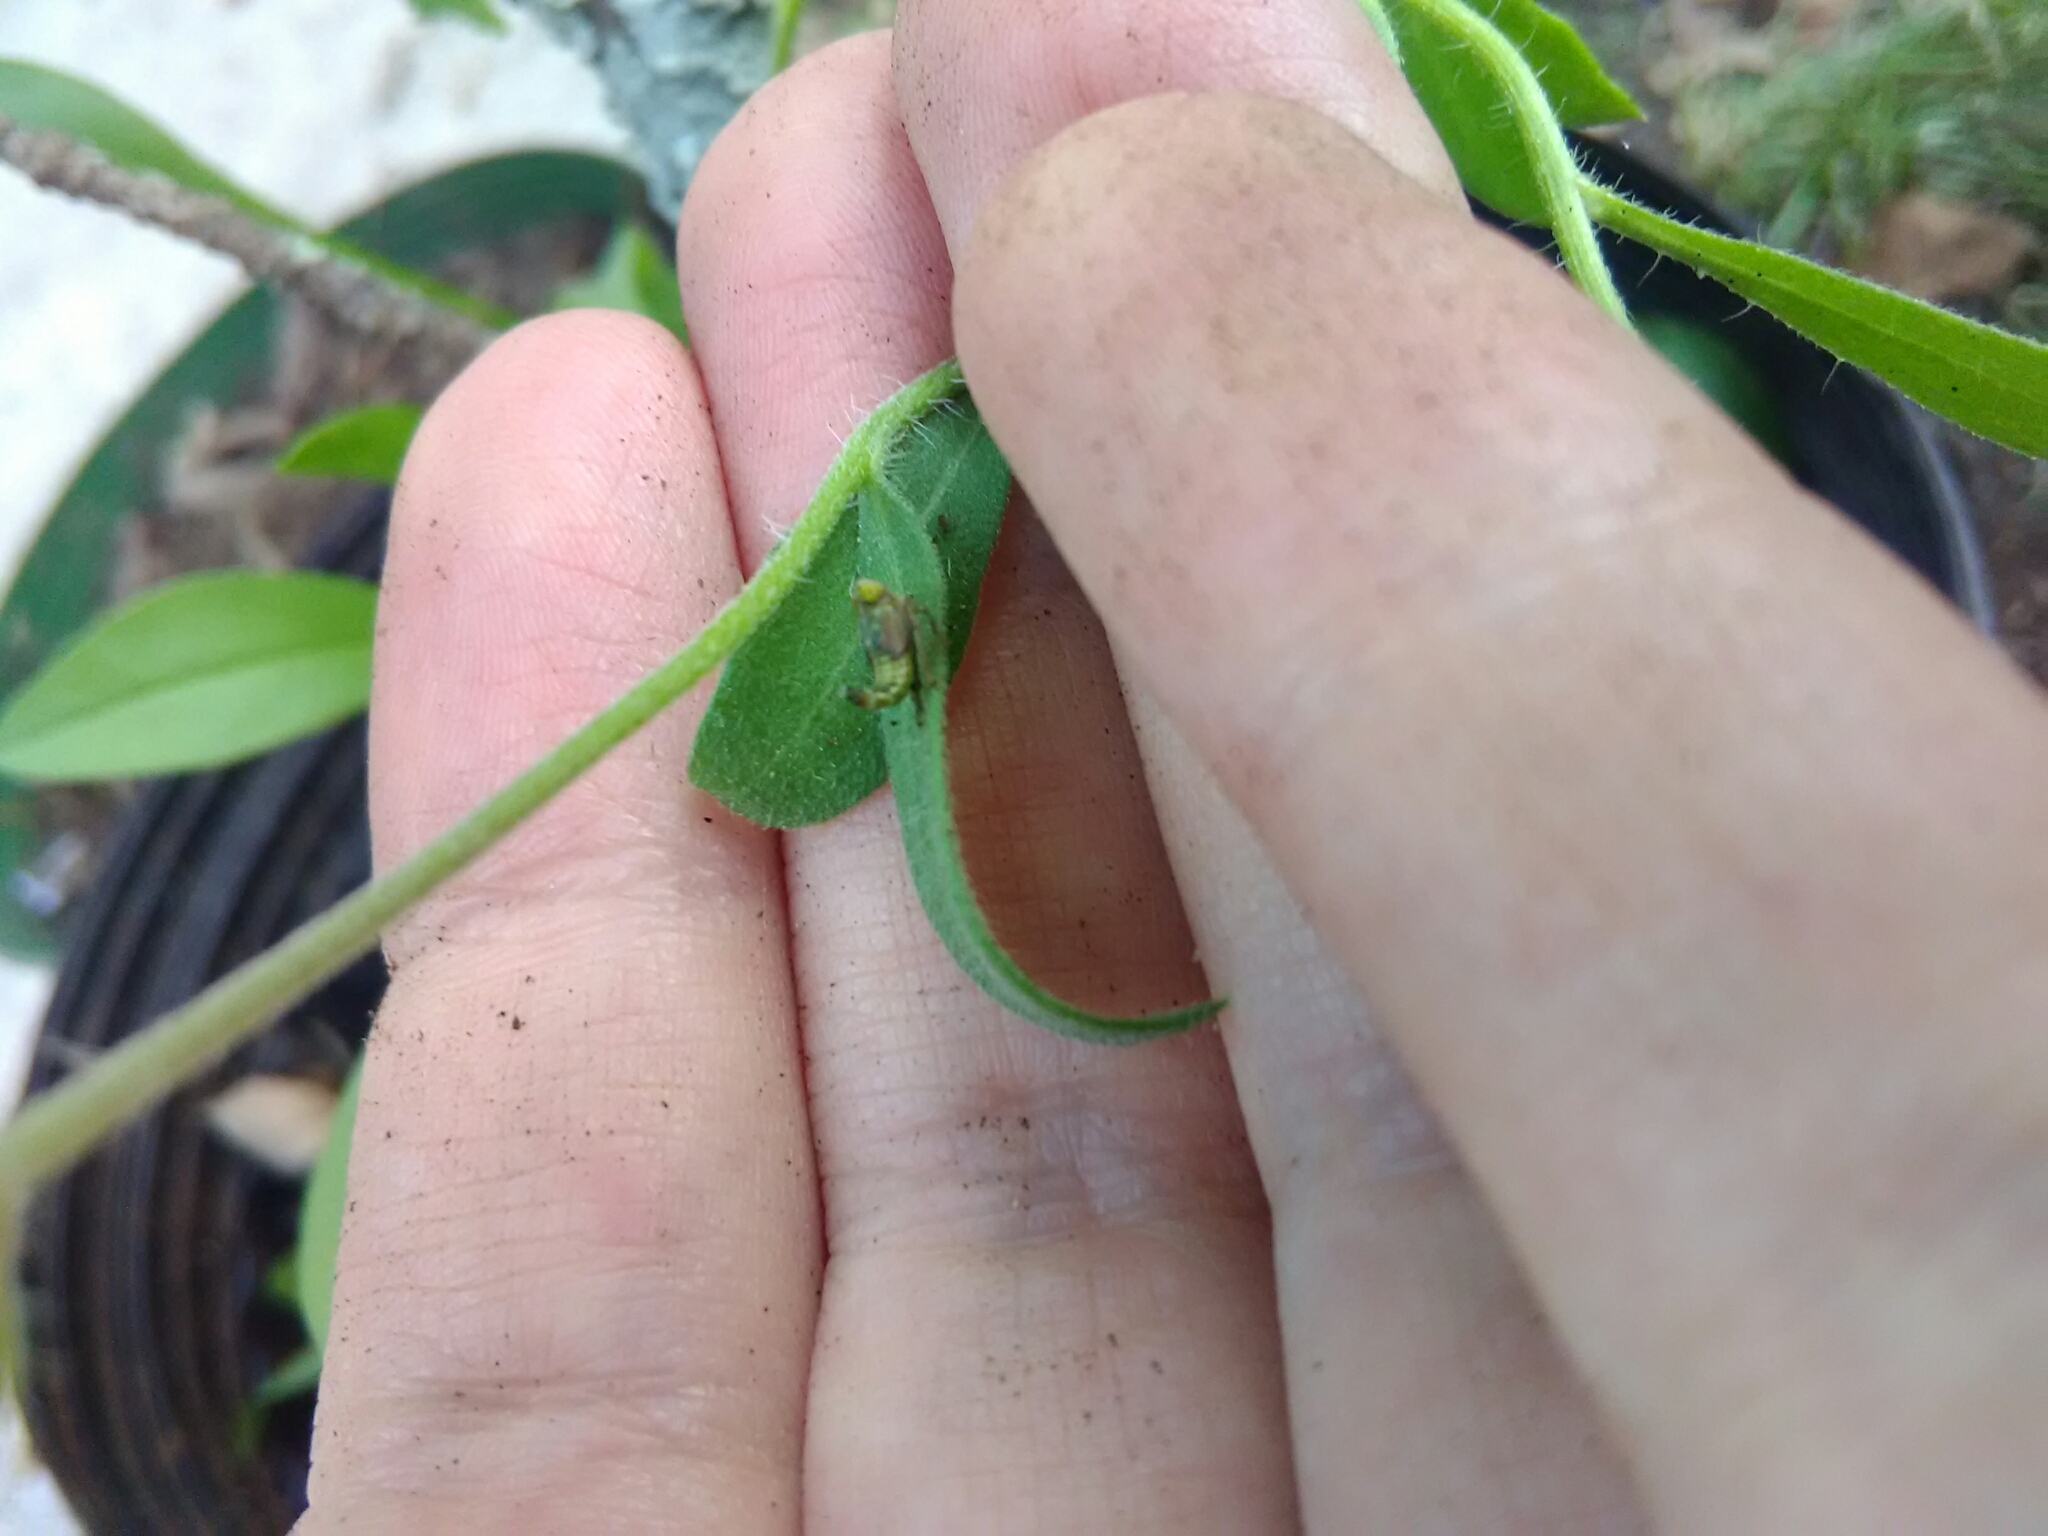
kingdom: Animalia
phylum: Arthropoda
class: Insecta
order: Hemiptera
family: Cicadellidae
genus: Jikradia
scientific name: Jikradia olitoria
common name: Coppery leafhopper
